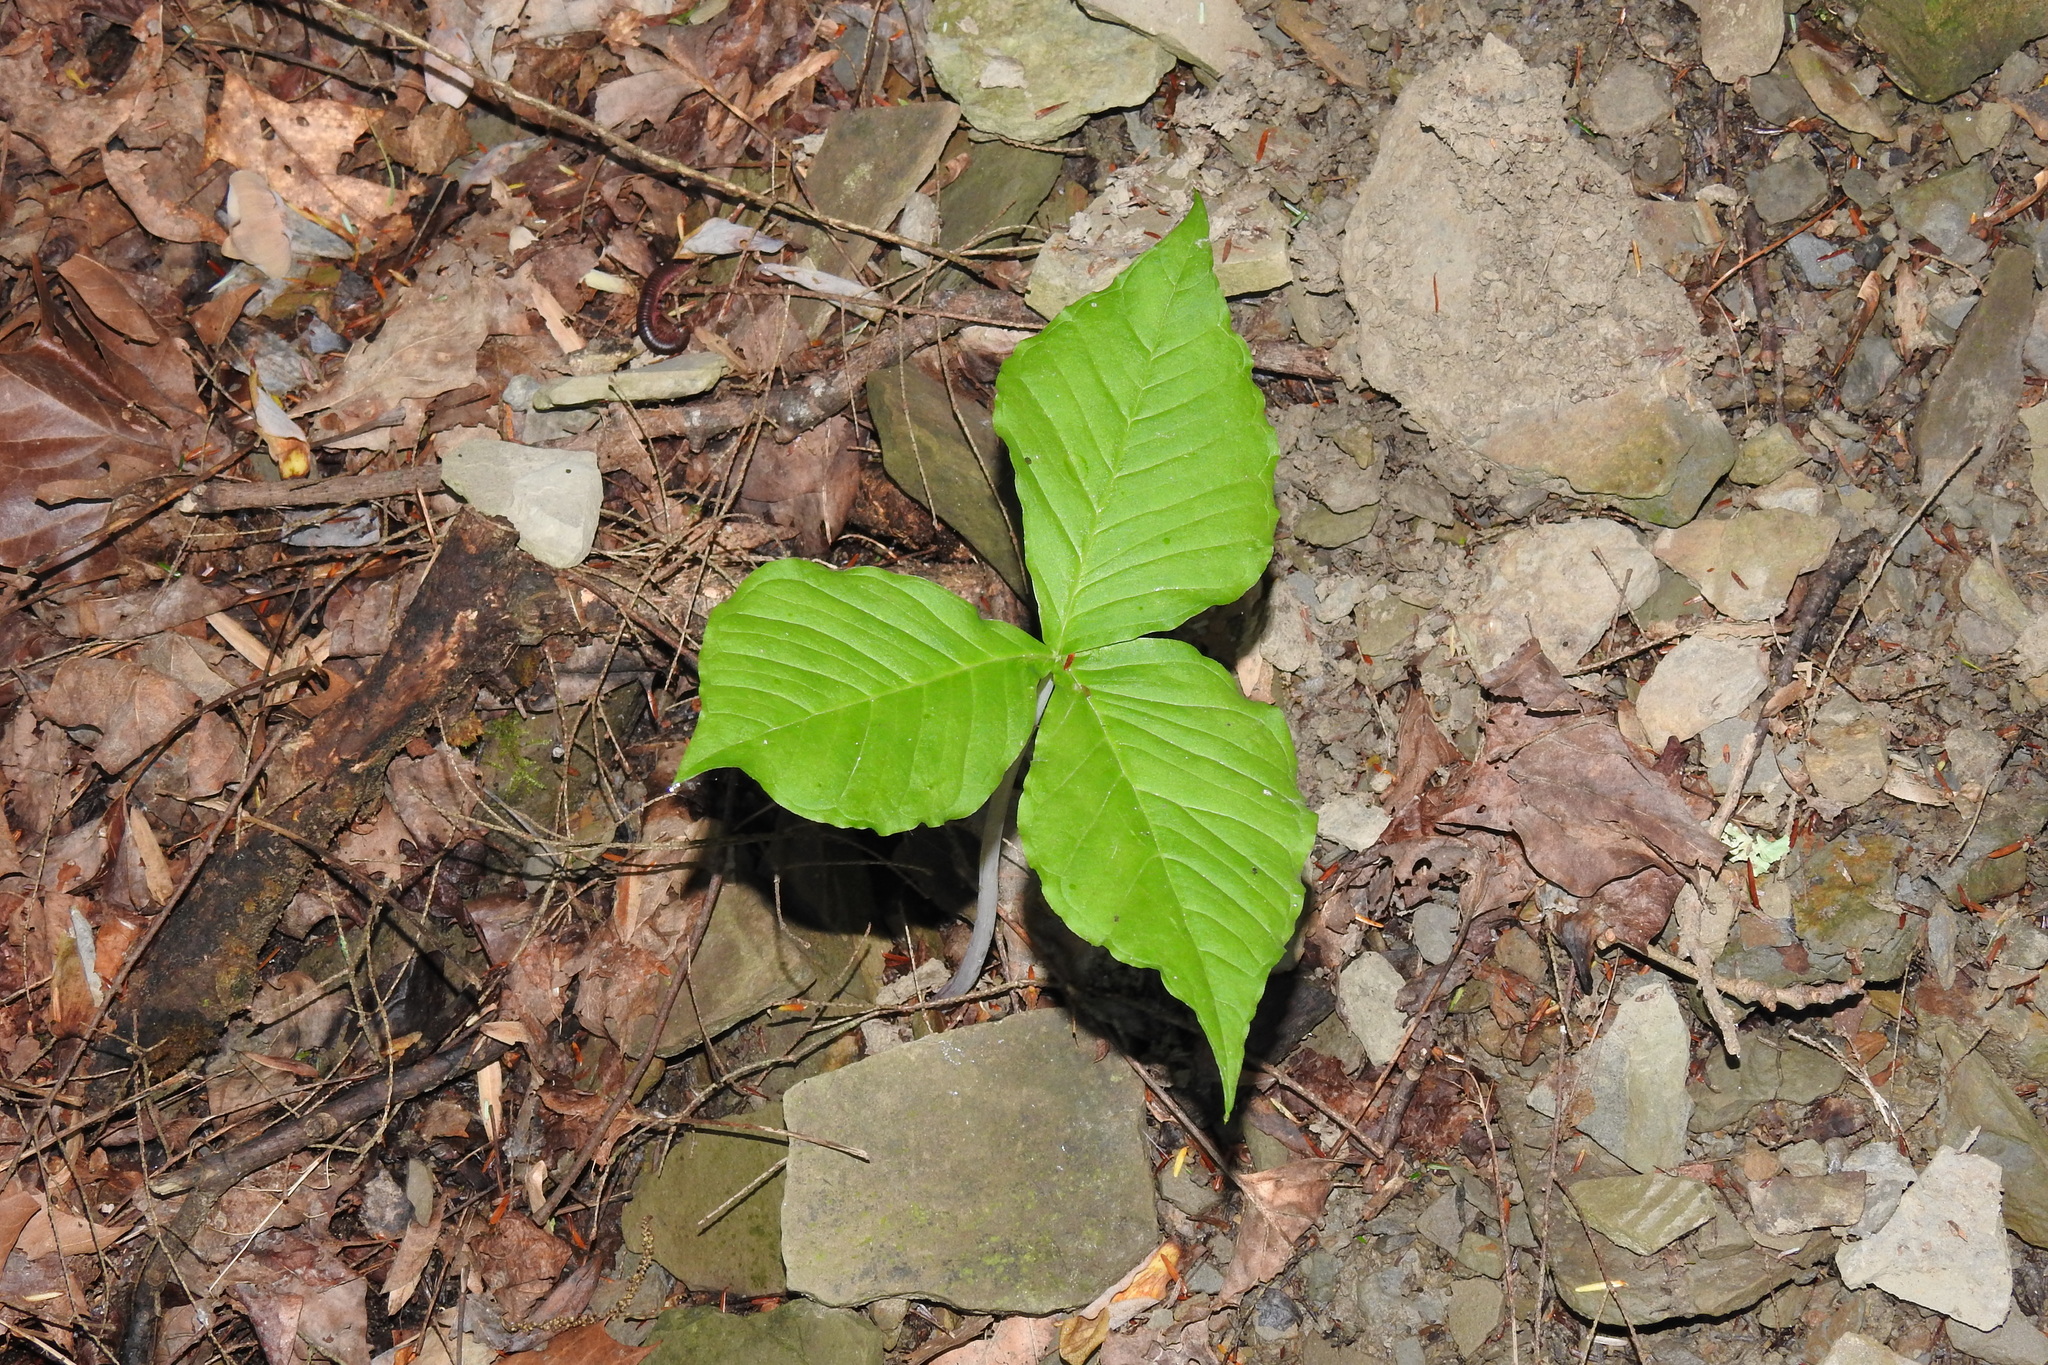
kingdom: Plantae
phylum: Tracheophyta
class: Liliopsida
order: Alismatales
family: Araceae
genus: Arisaema
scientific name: Arisaema triphyllum
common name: Jack-in-the-pulpit
